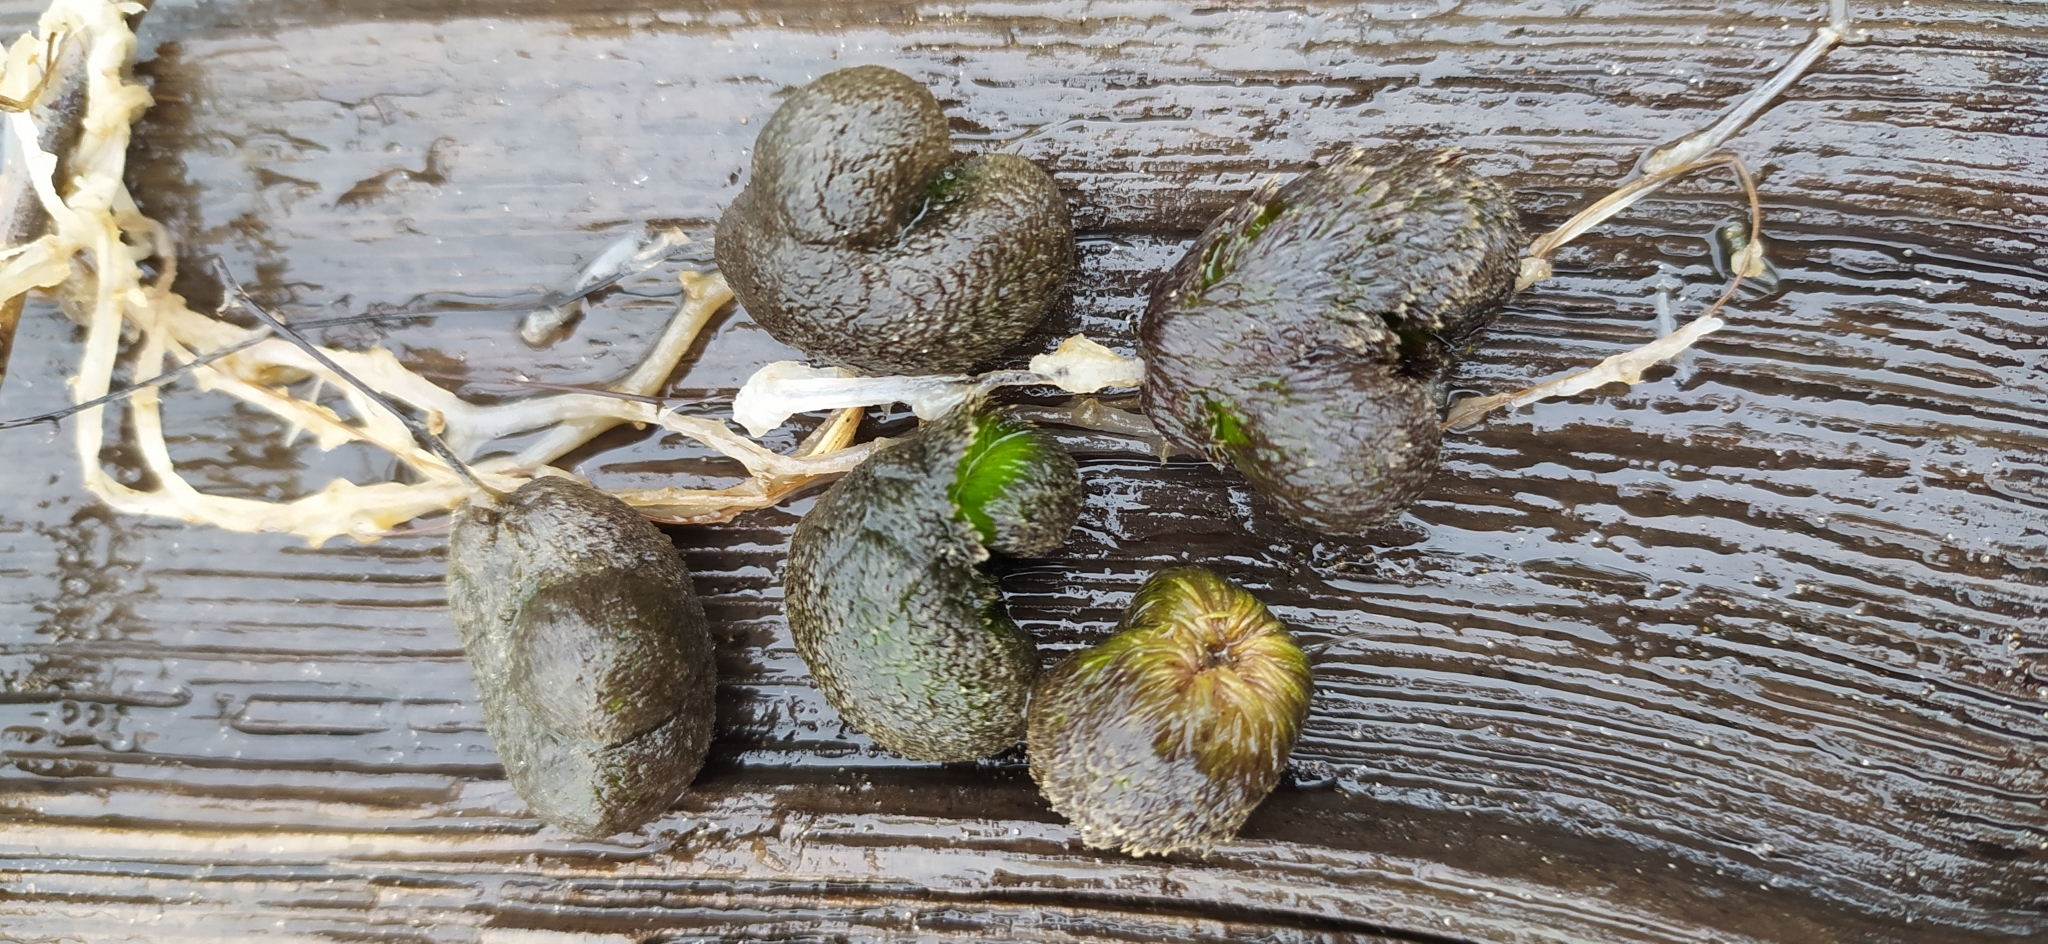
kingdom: Plantae
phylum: Tracheophyta
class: Magnoliopsida
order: Lamiales
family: Lentibulariaceae
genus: Utricularia
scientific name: Utricularia vulgaris
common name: Greater bladderwort
